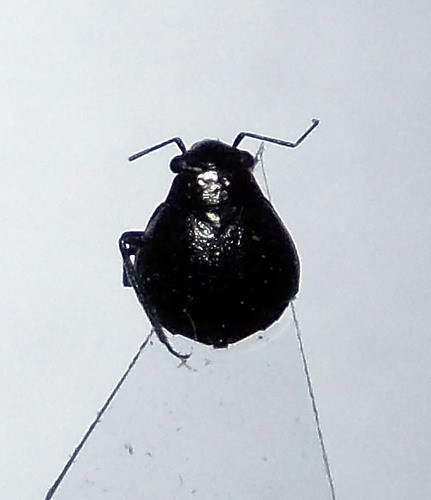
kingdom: Animalia
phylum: Arthropoda
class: Insecta
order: Hemiptera
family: Miridae
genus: Piezocranum
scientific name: Piezocranum simulans
